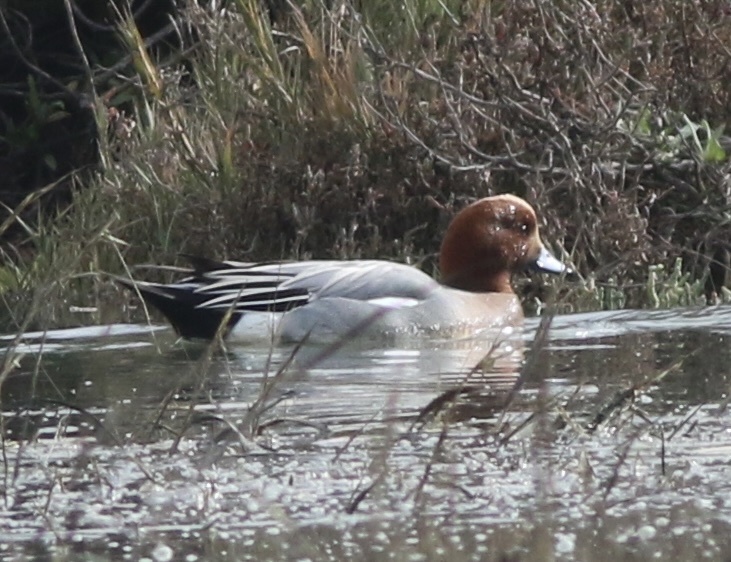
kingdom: Animalia
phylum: Chordata
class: Aves
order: Anseriformes
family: Anatidae
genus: Mareca
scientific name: Mareca penelope
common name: Eurasian wigeon
